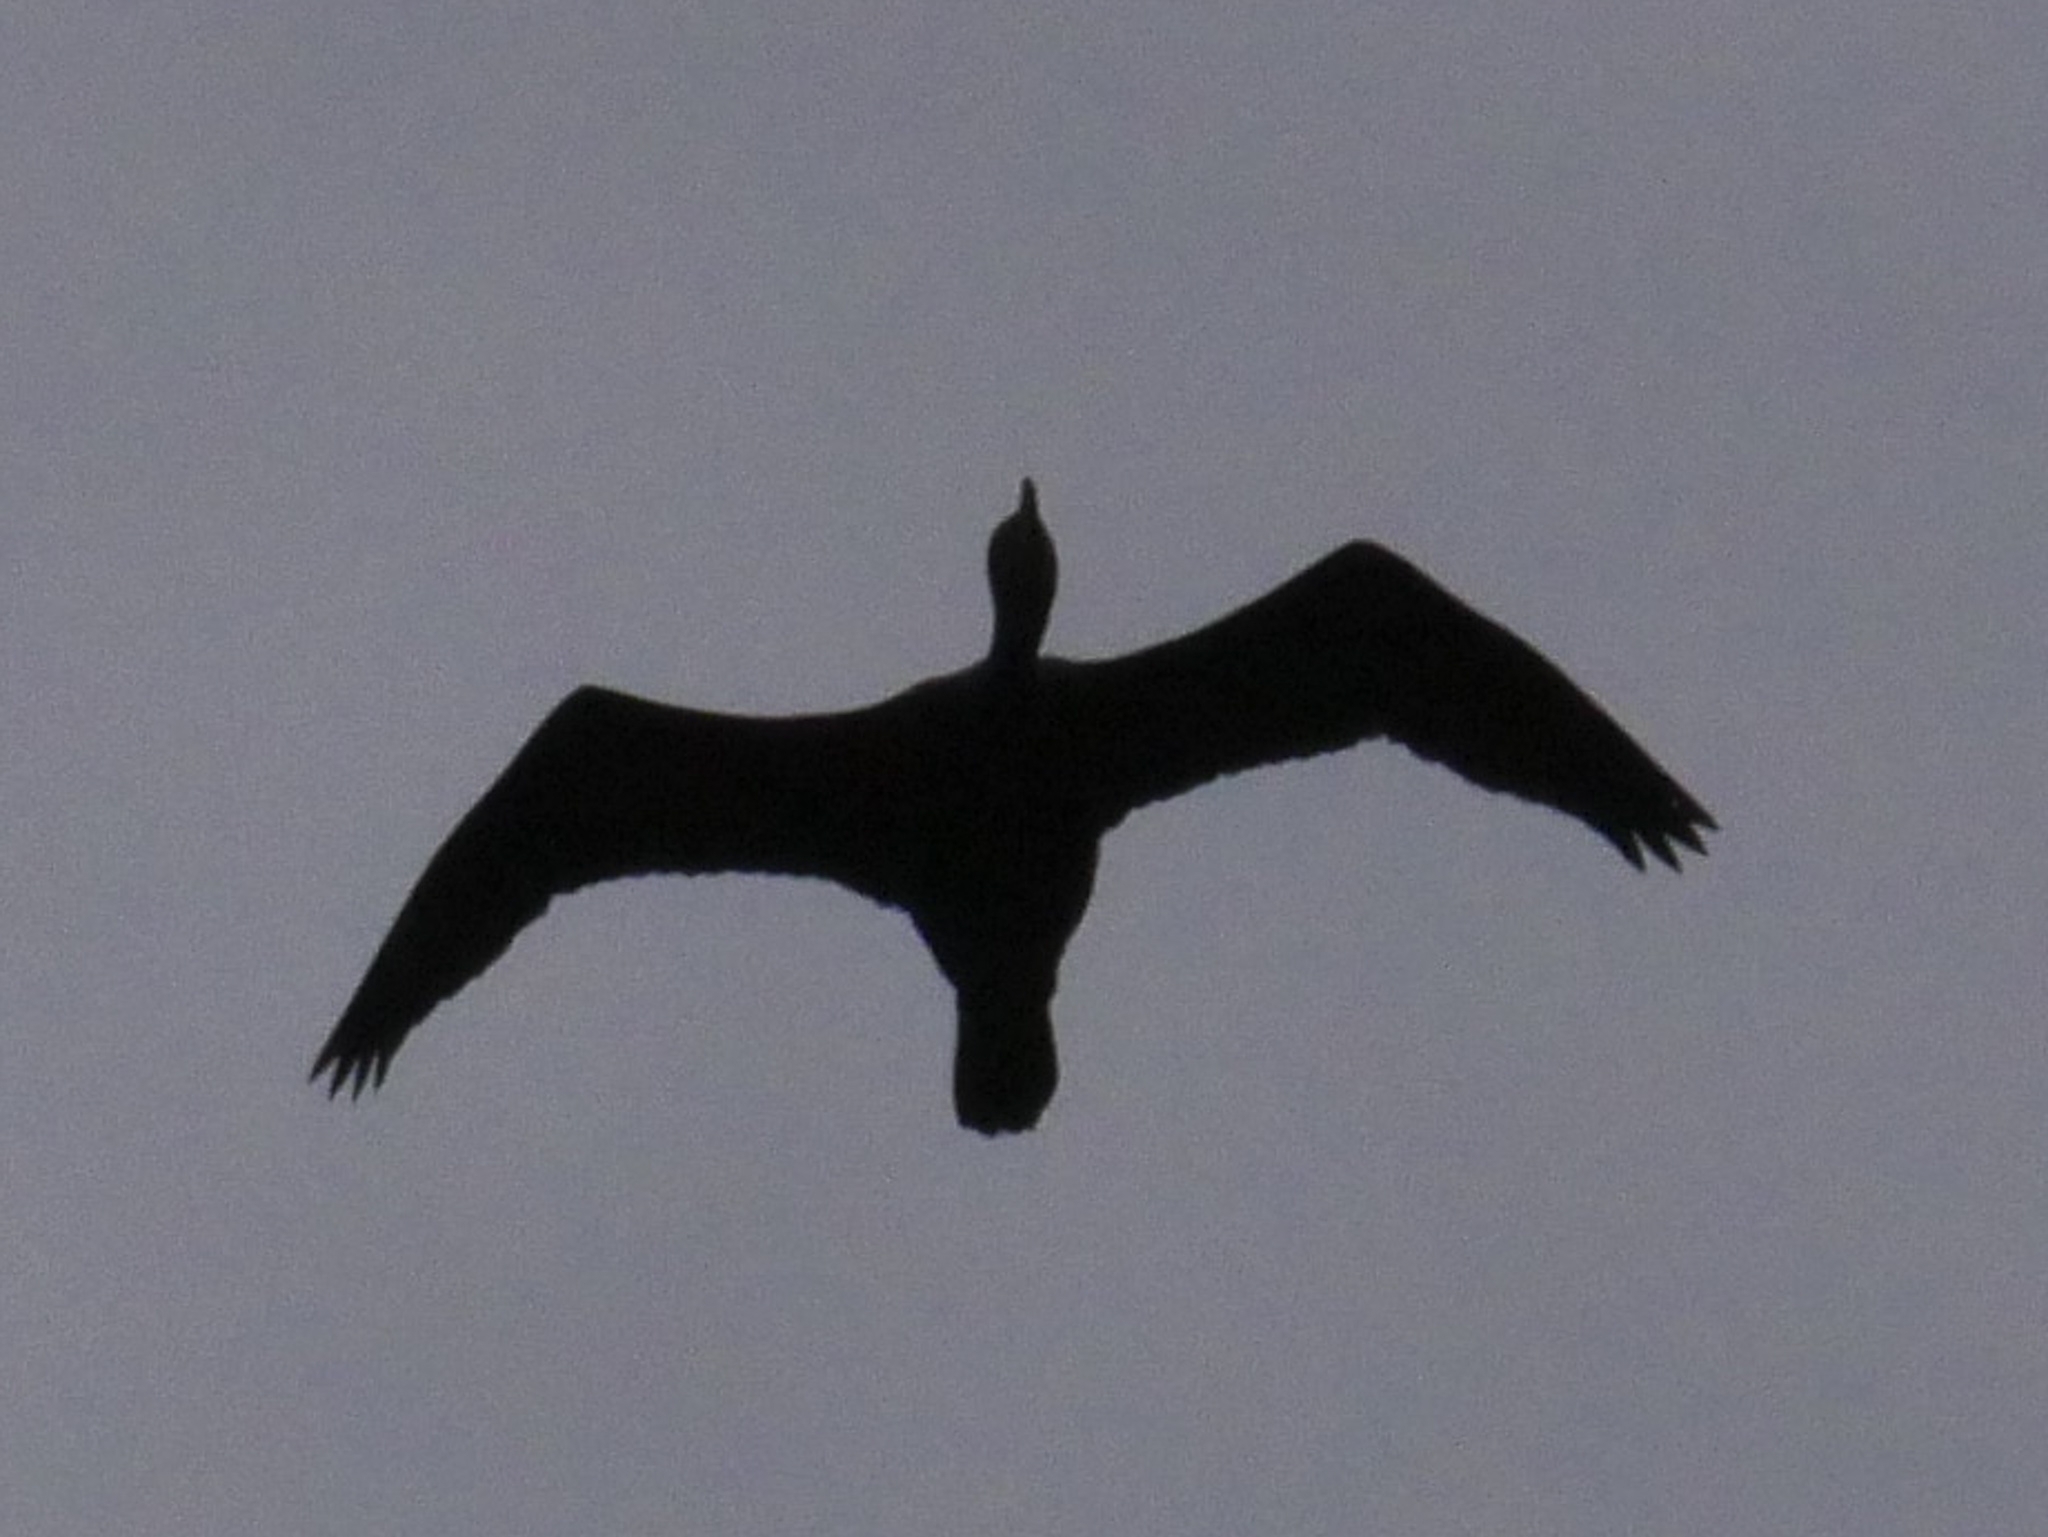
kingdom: Animalia
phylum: Chordata
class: Aves
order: Suliformes
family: Phalacrocoracidae
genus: Phalacrocorax
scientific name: Phalacrocorax auritus
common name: Double-crested cormorant
